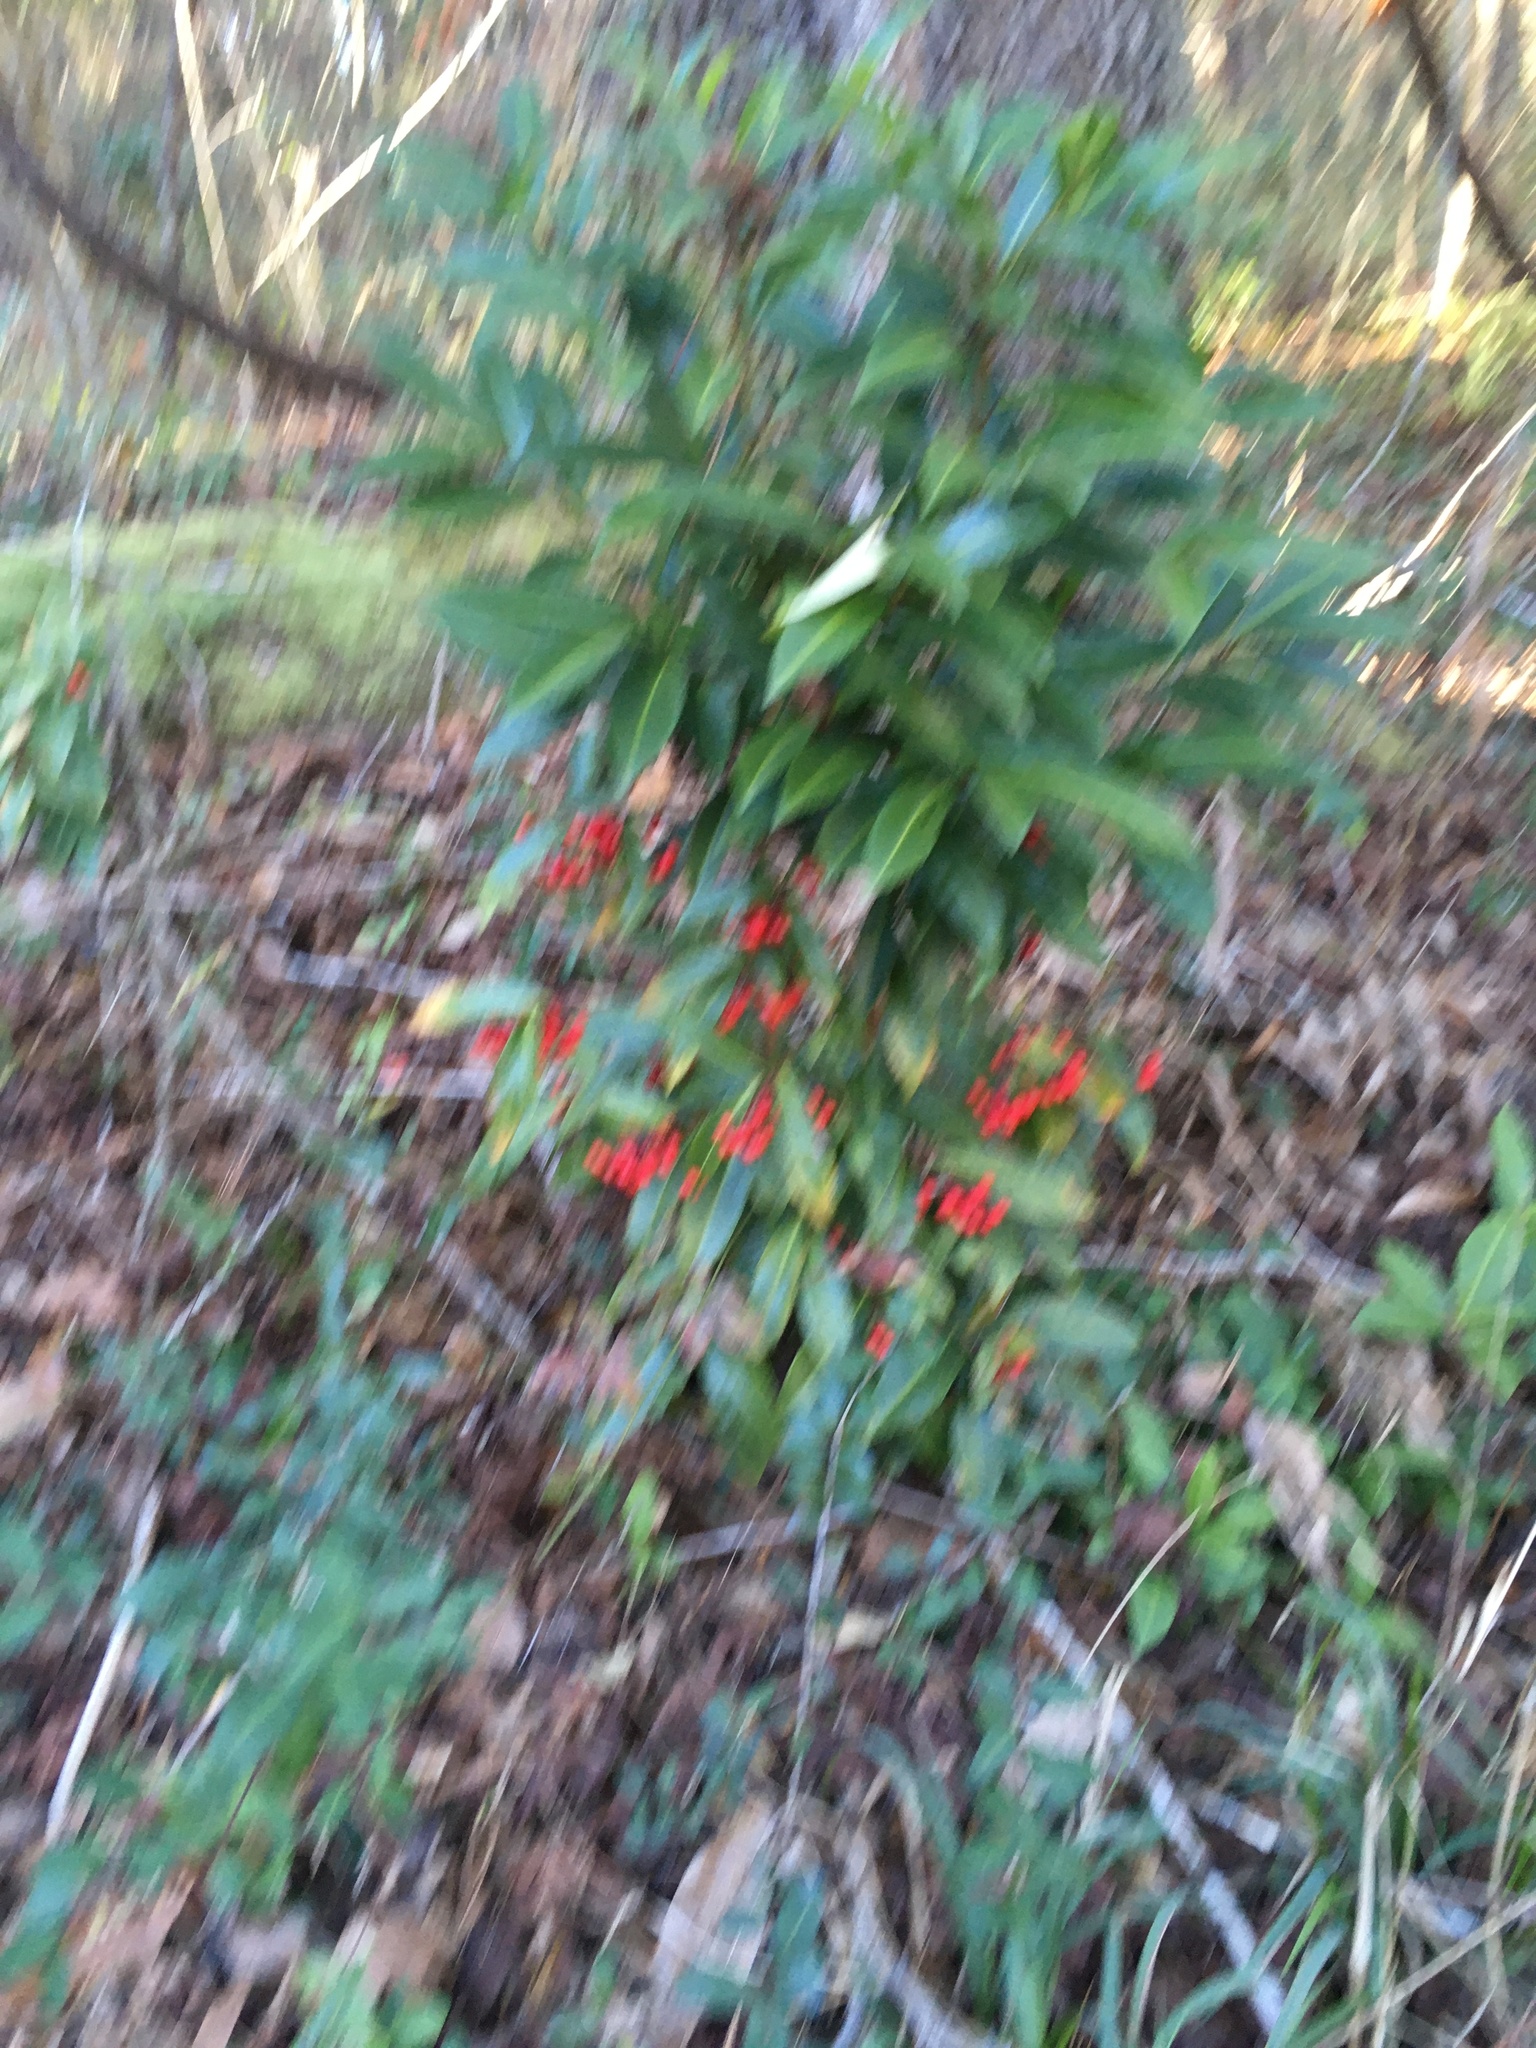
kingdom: Plantae
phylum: Tracheophyta
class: Magnoliopsida
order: Ericales
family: Primulaceae
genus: Ardisia
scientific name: Ardisia crenata
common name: Hen's eyes
